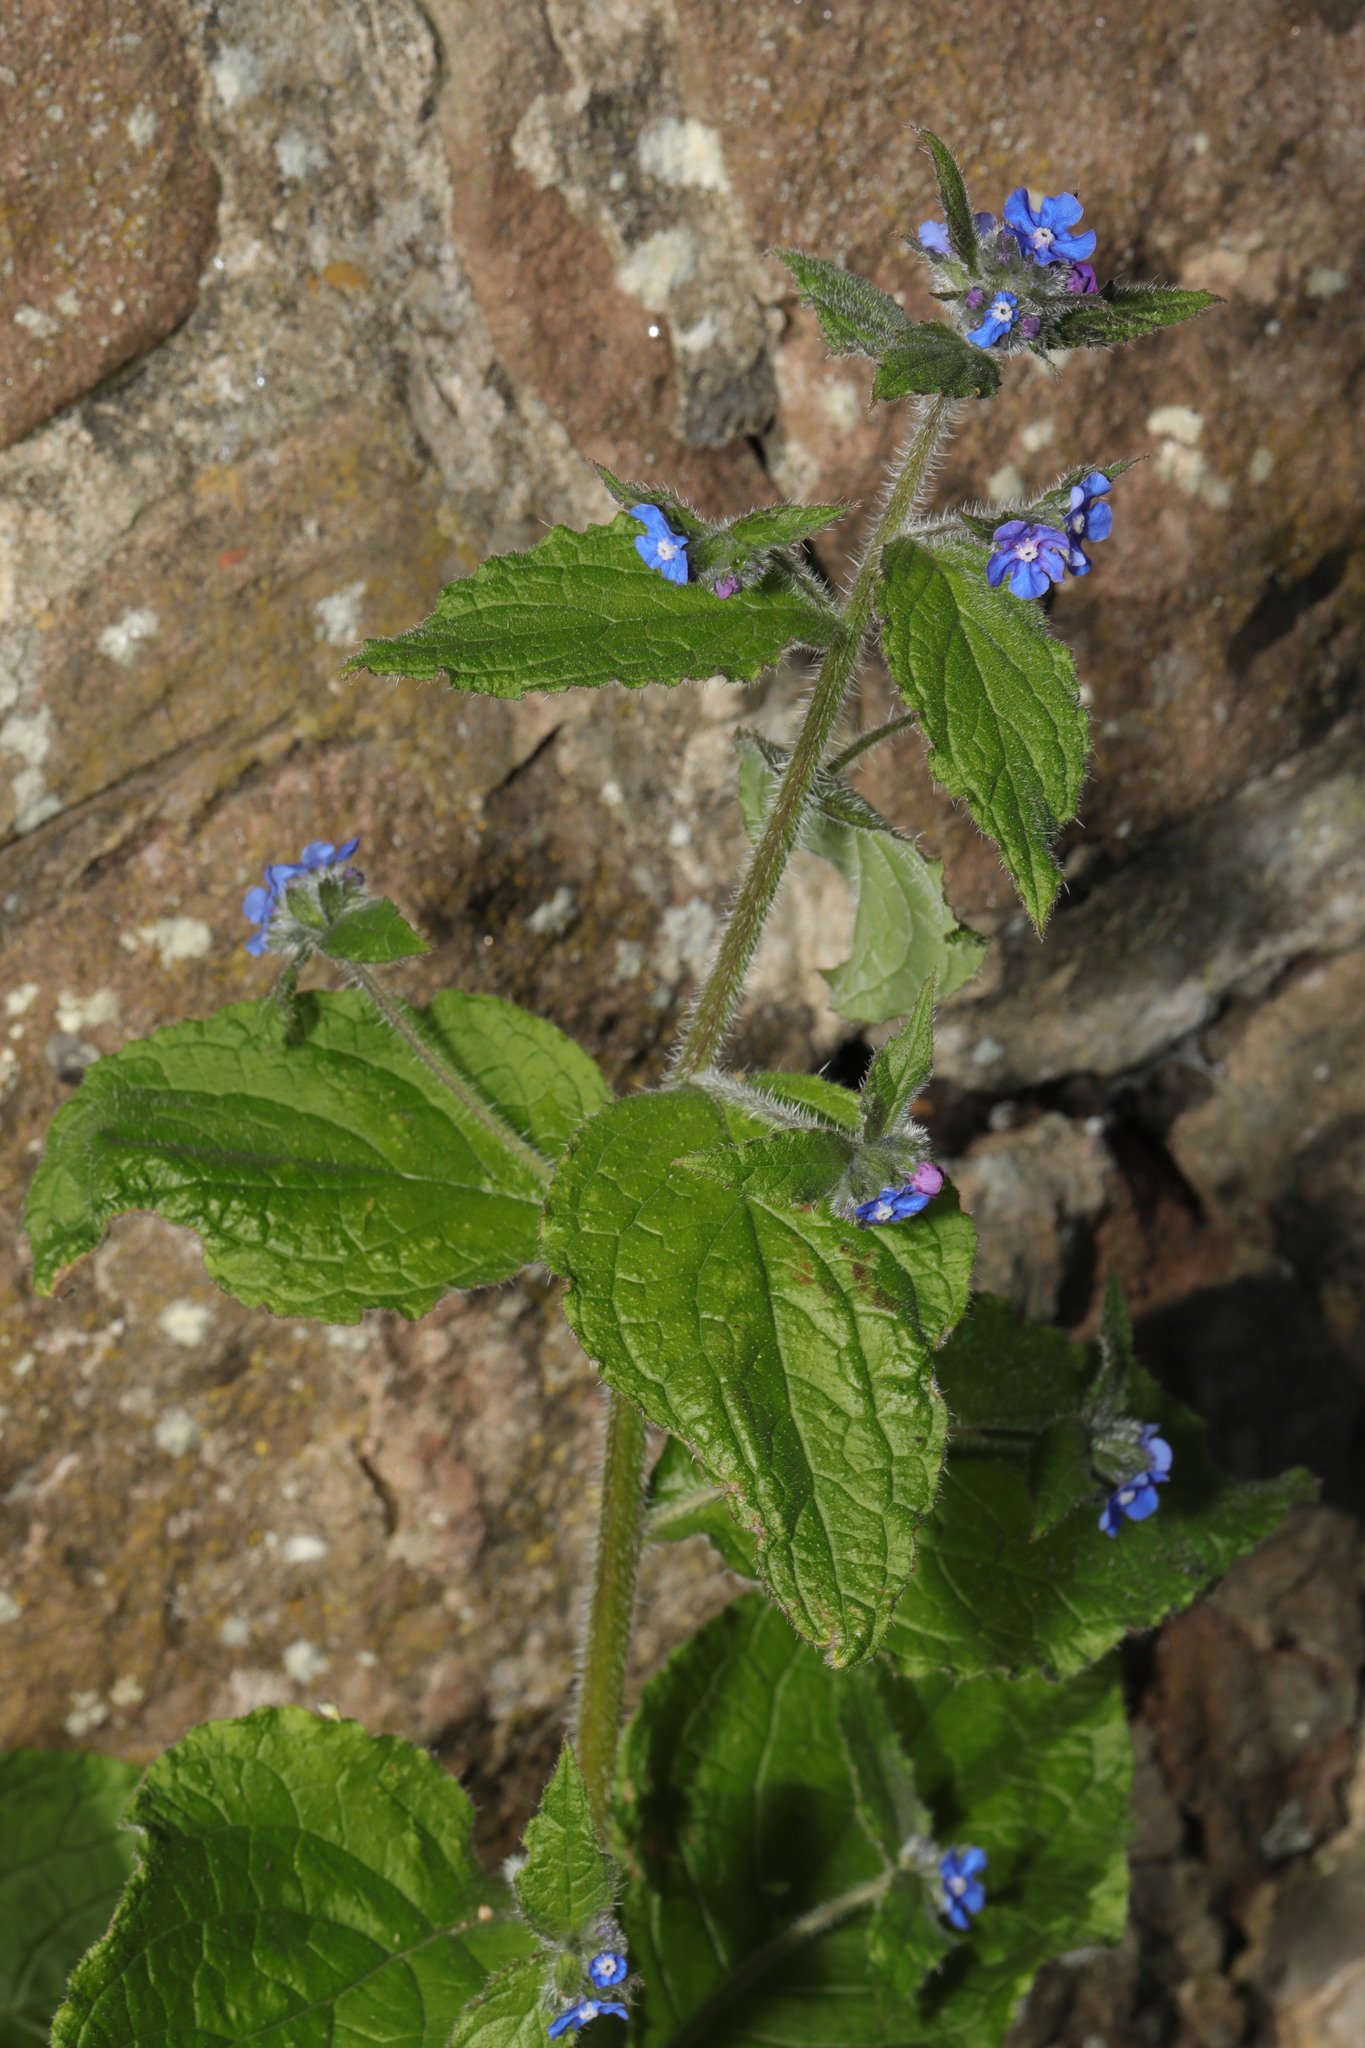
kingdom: Plantae
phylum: Tracheophyta
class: Magnoliopsida
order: Boraginales
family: Boraginaceae
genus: Pentaglottis
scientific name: Pentaglottis sempervirens
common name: Green alkanet
